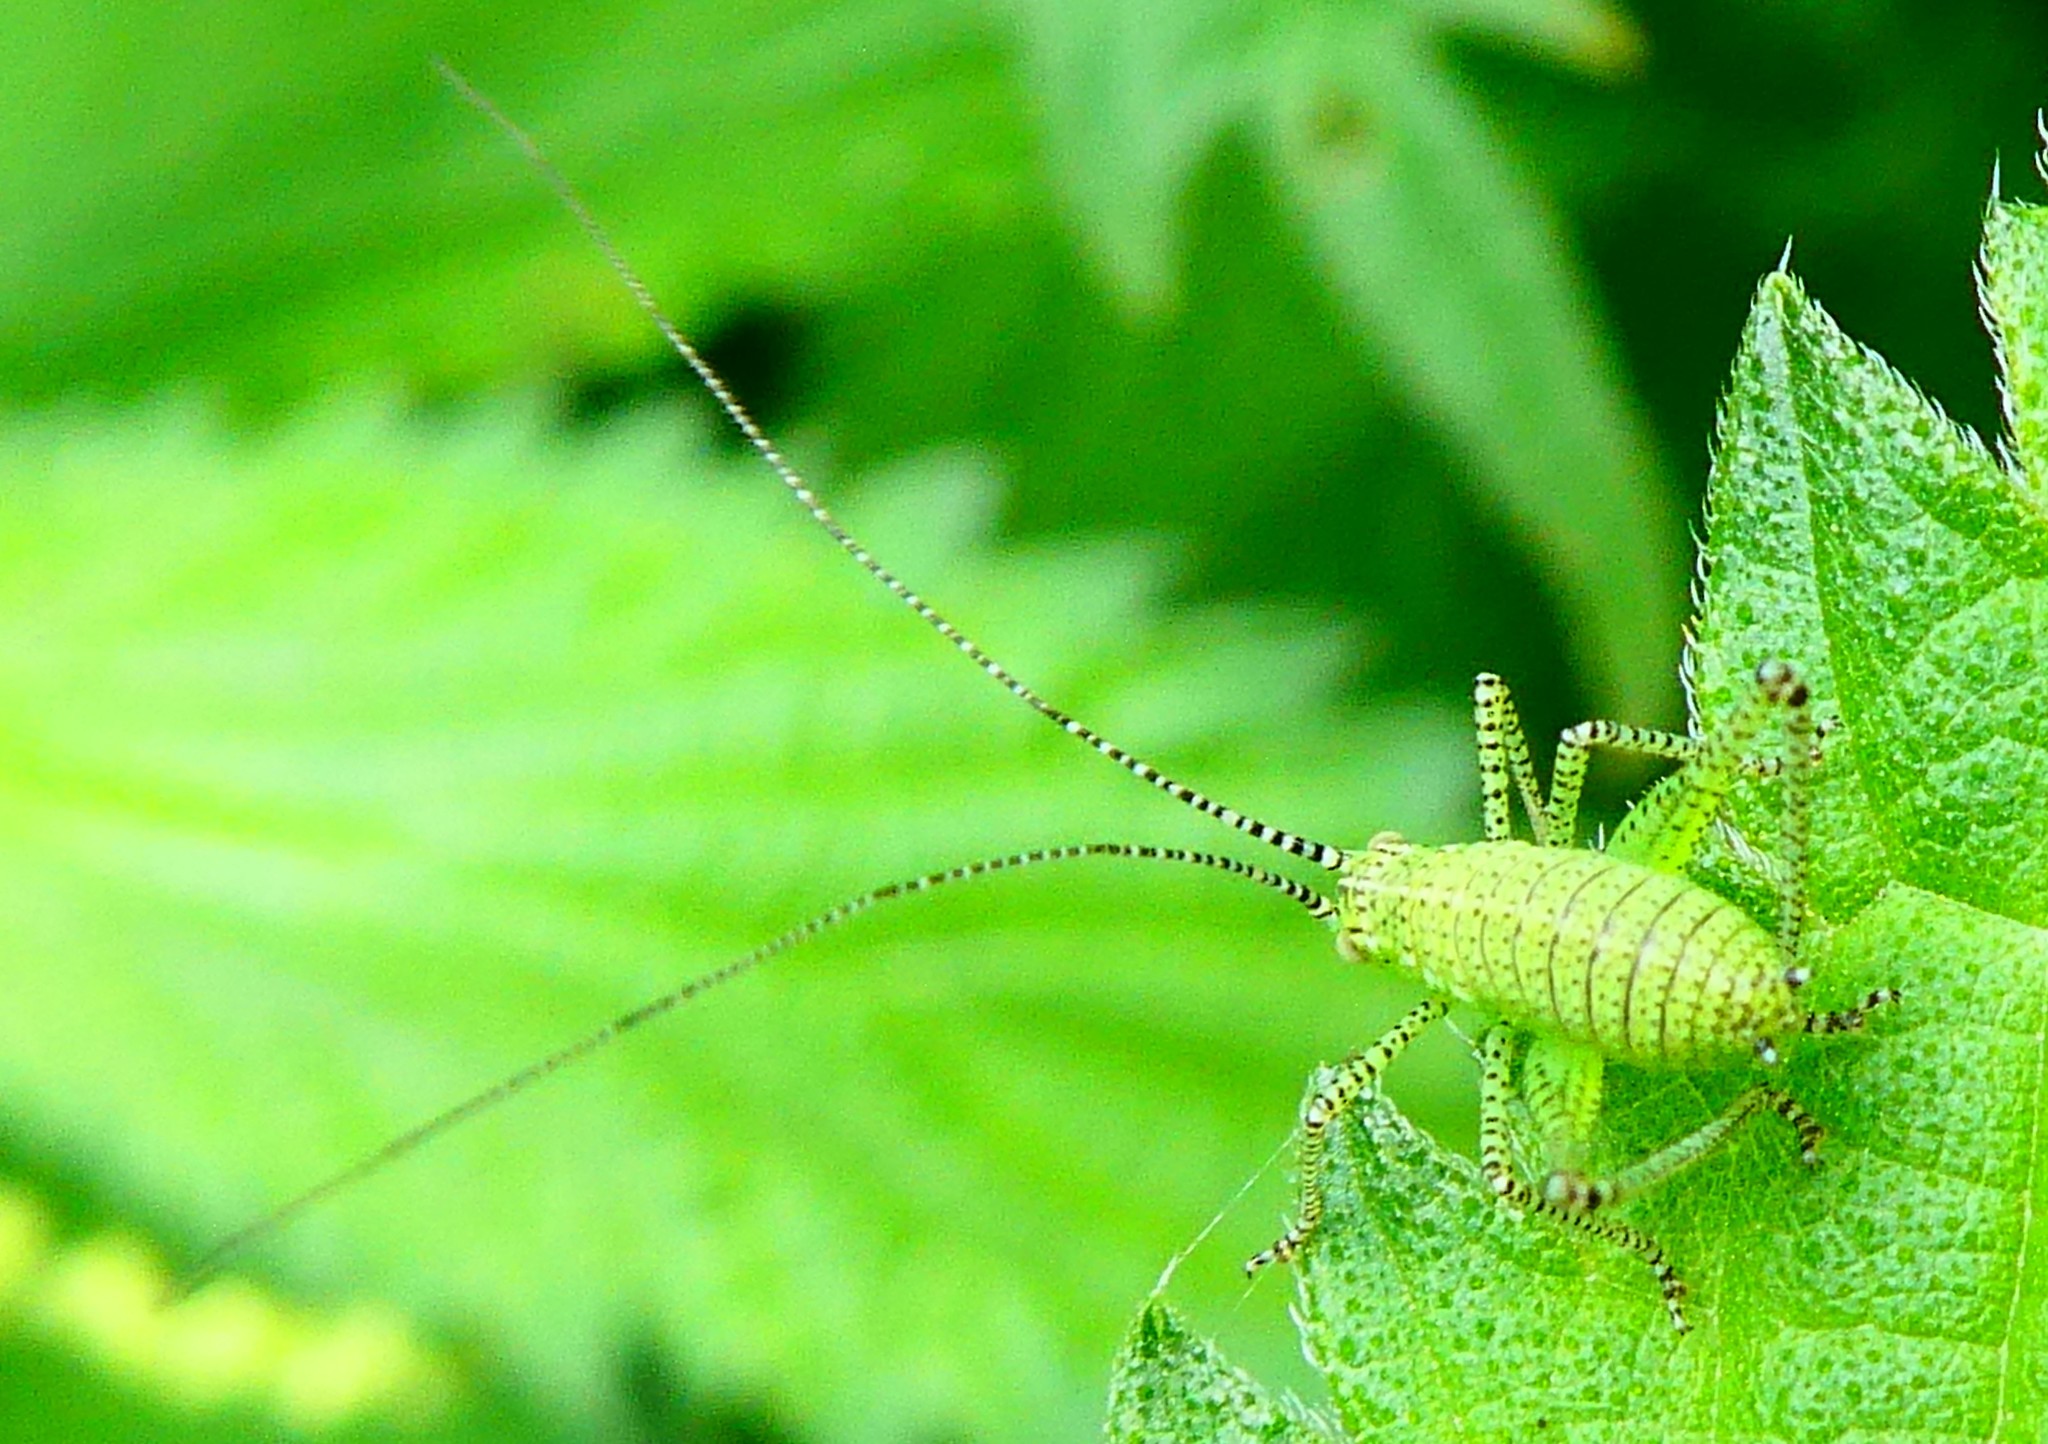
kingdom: Animalia
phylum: Arthropoda
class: Insecta
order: Orthoptera
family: Tettigoniidae
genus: Leptophyes
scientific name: Leptophyes punctatissima
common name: Speckled bush-cricket
